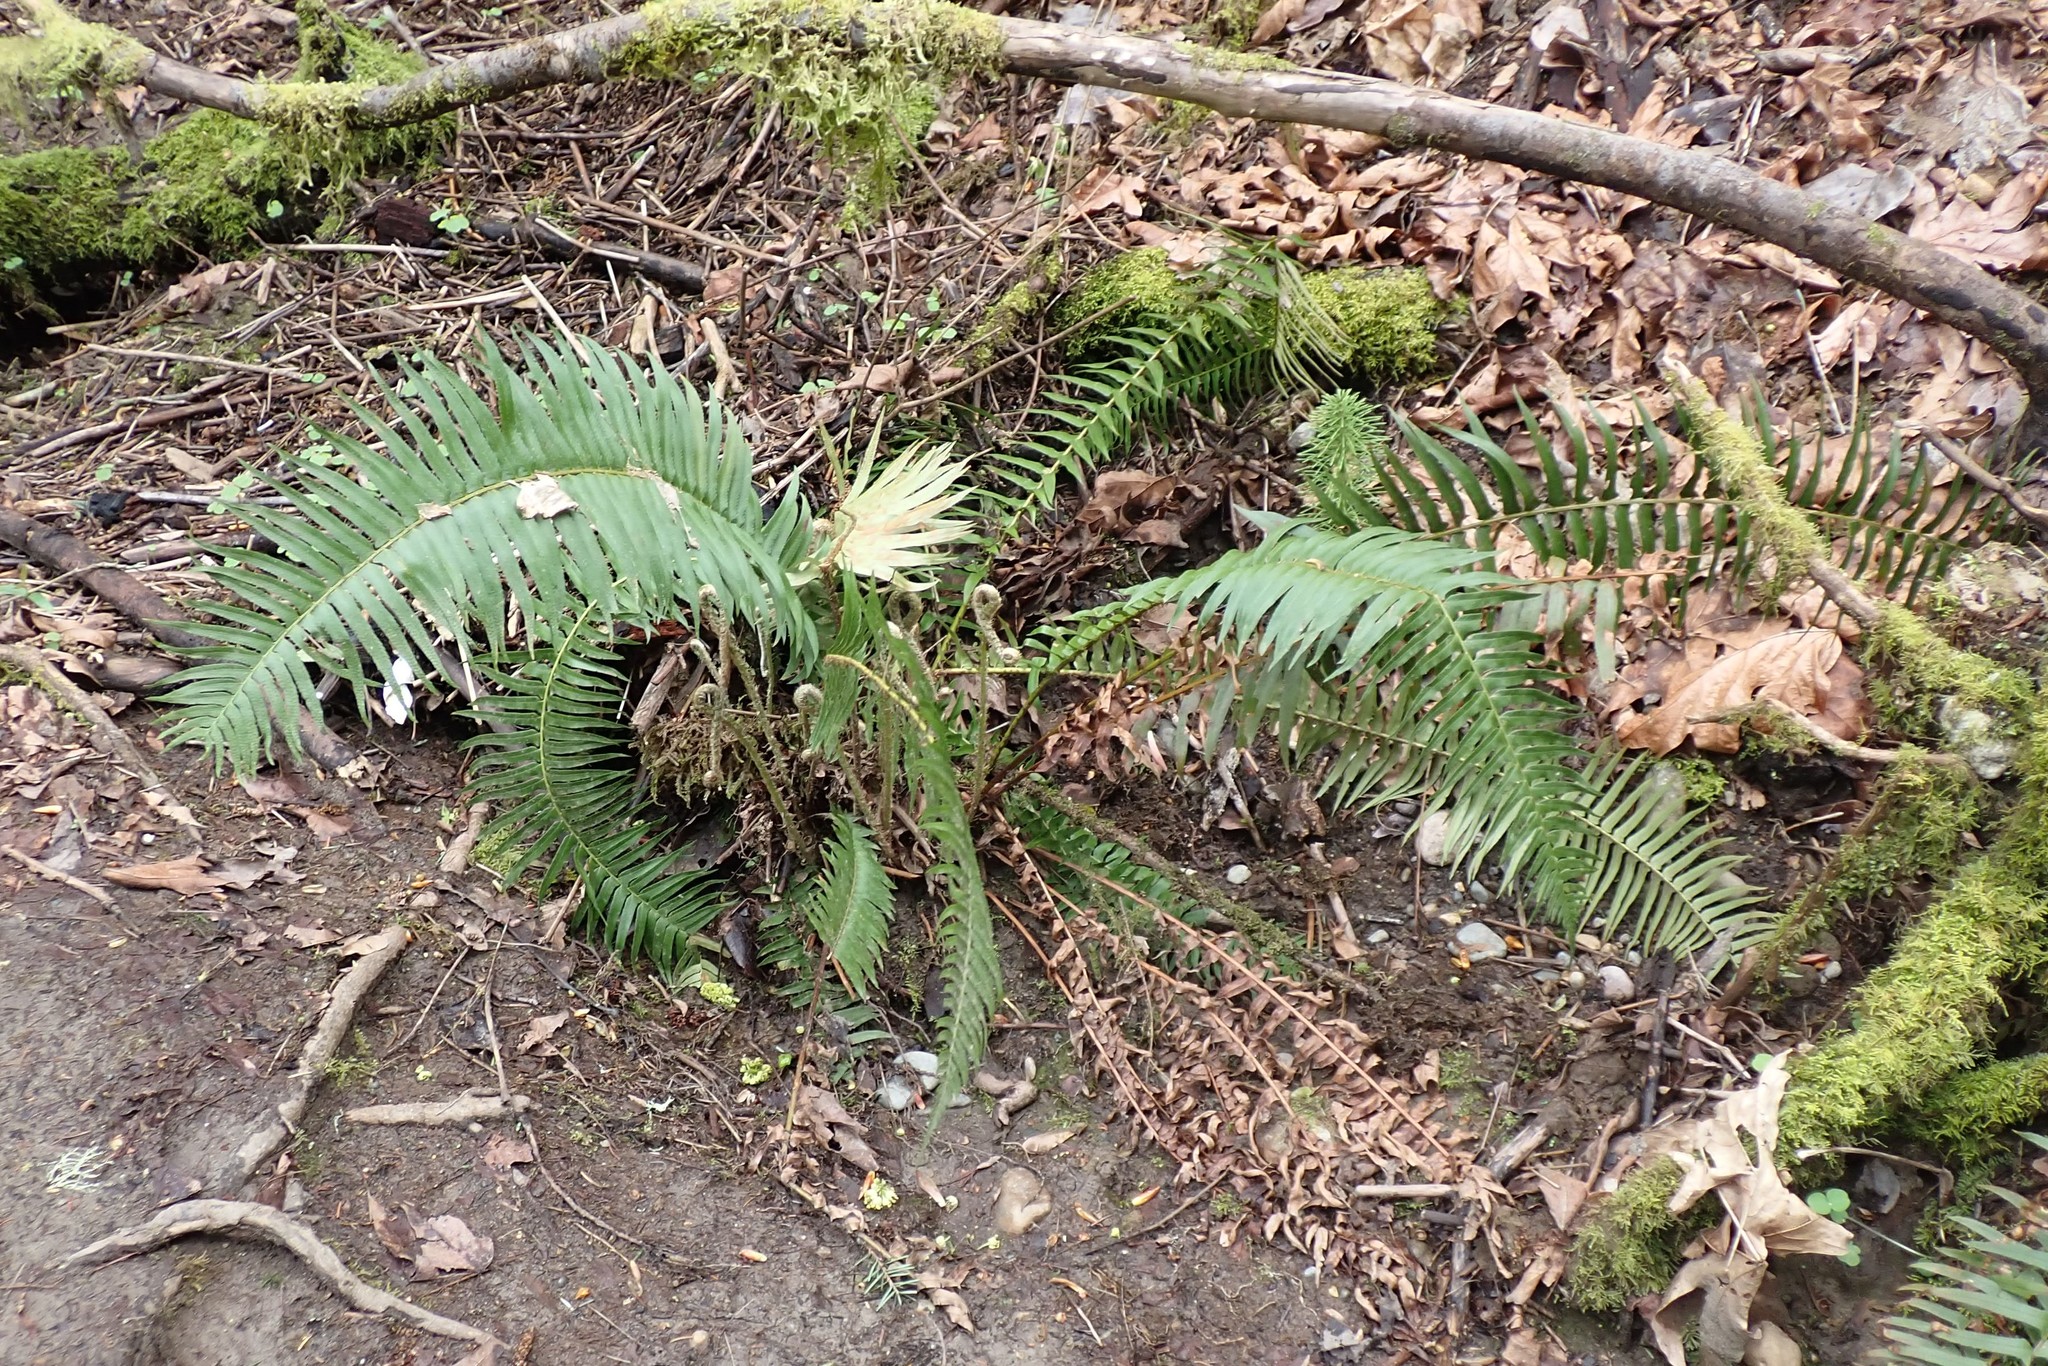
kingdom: Plantae
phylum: Tracheophyta
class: Polypodiopsida
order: Polypodiales
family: Dryopteridaceae
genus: Polystichum
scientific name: Polystichum munitum
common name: Western sword-fern
